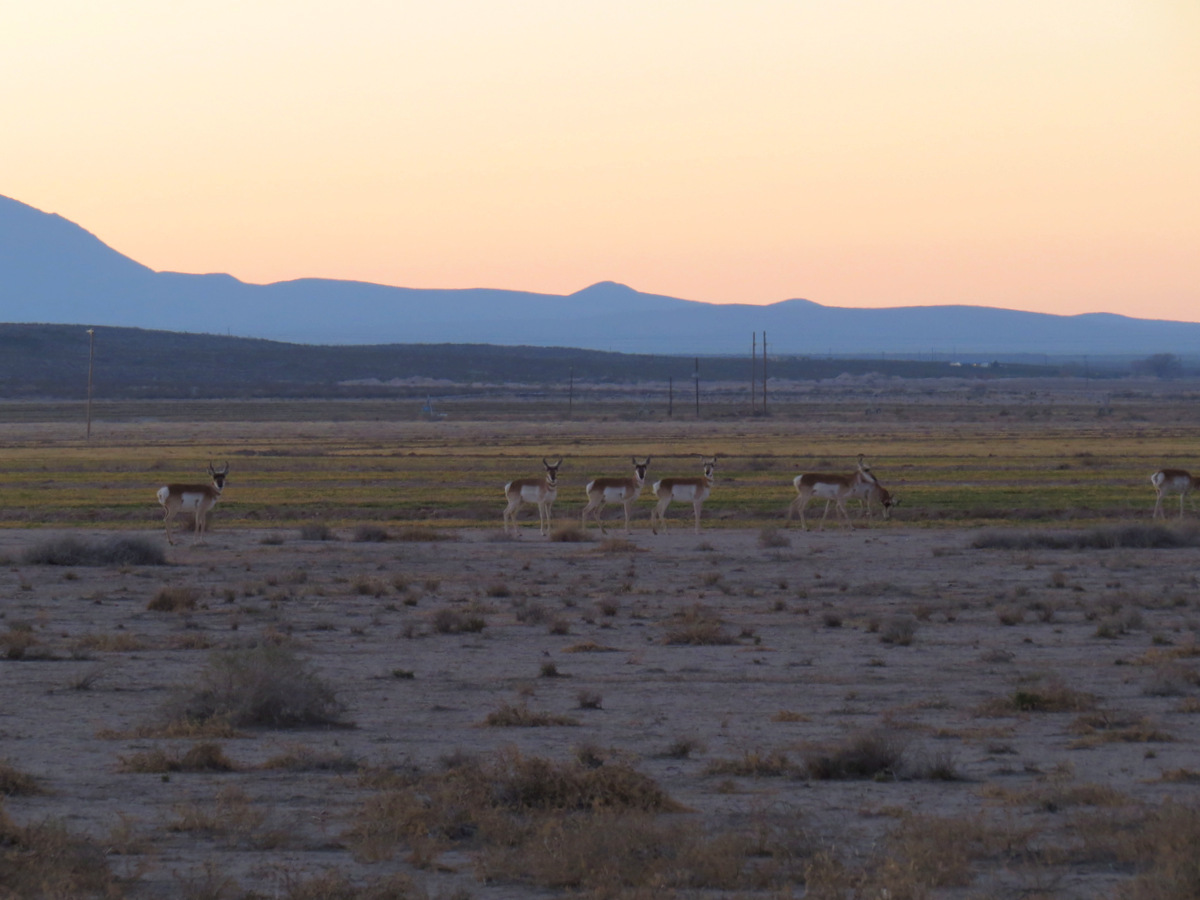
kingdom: Animalia
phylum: Chordata
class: Mammalia
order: Artiodactyla
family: Antilocapridae
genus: Antilocapra
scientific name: Antilocapra americana
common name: Pronghorn
